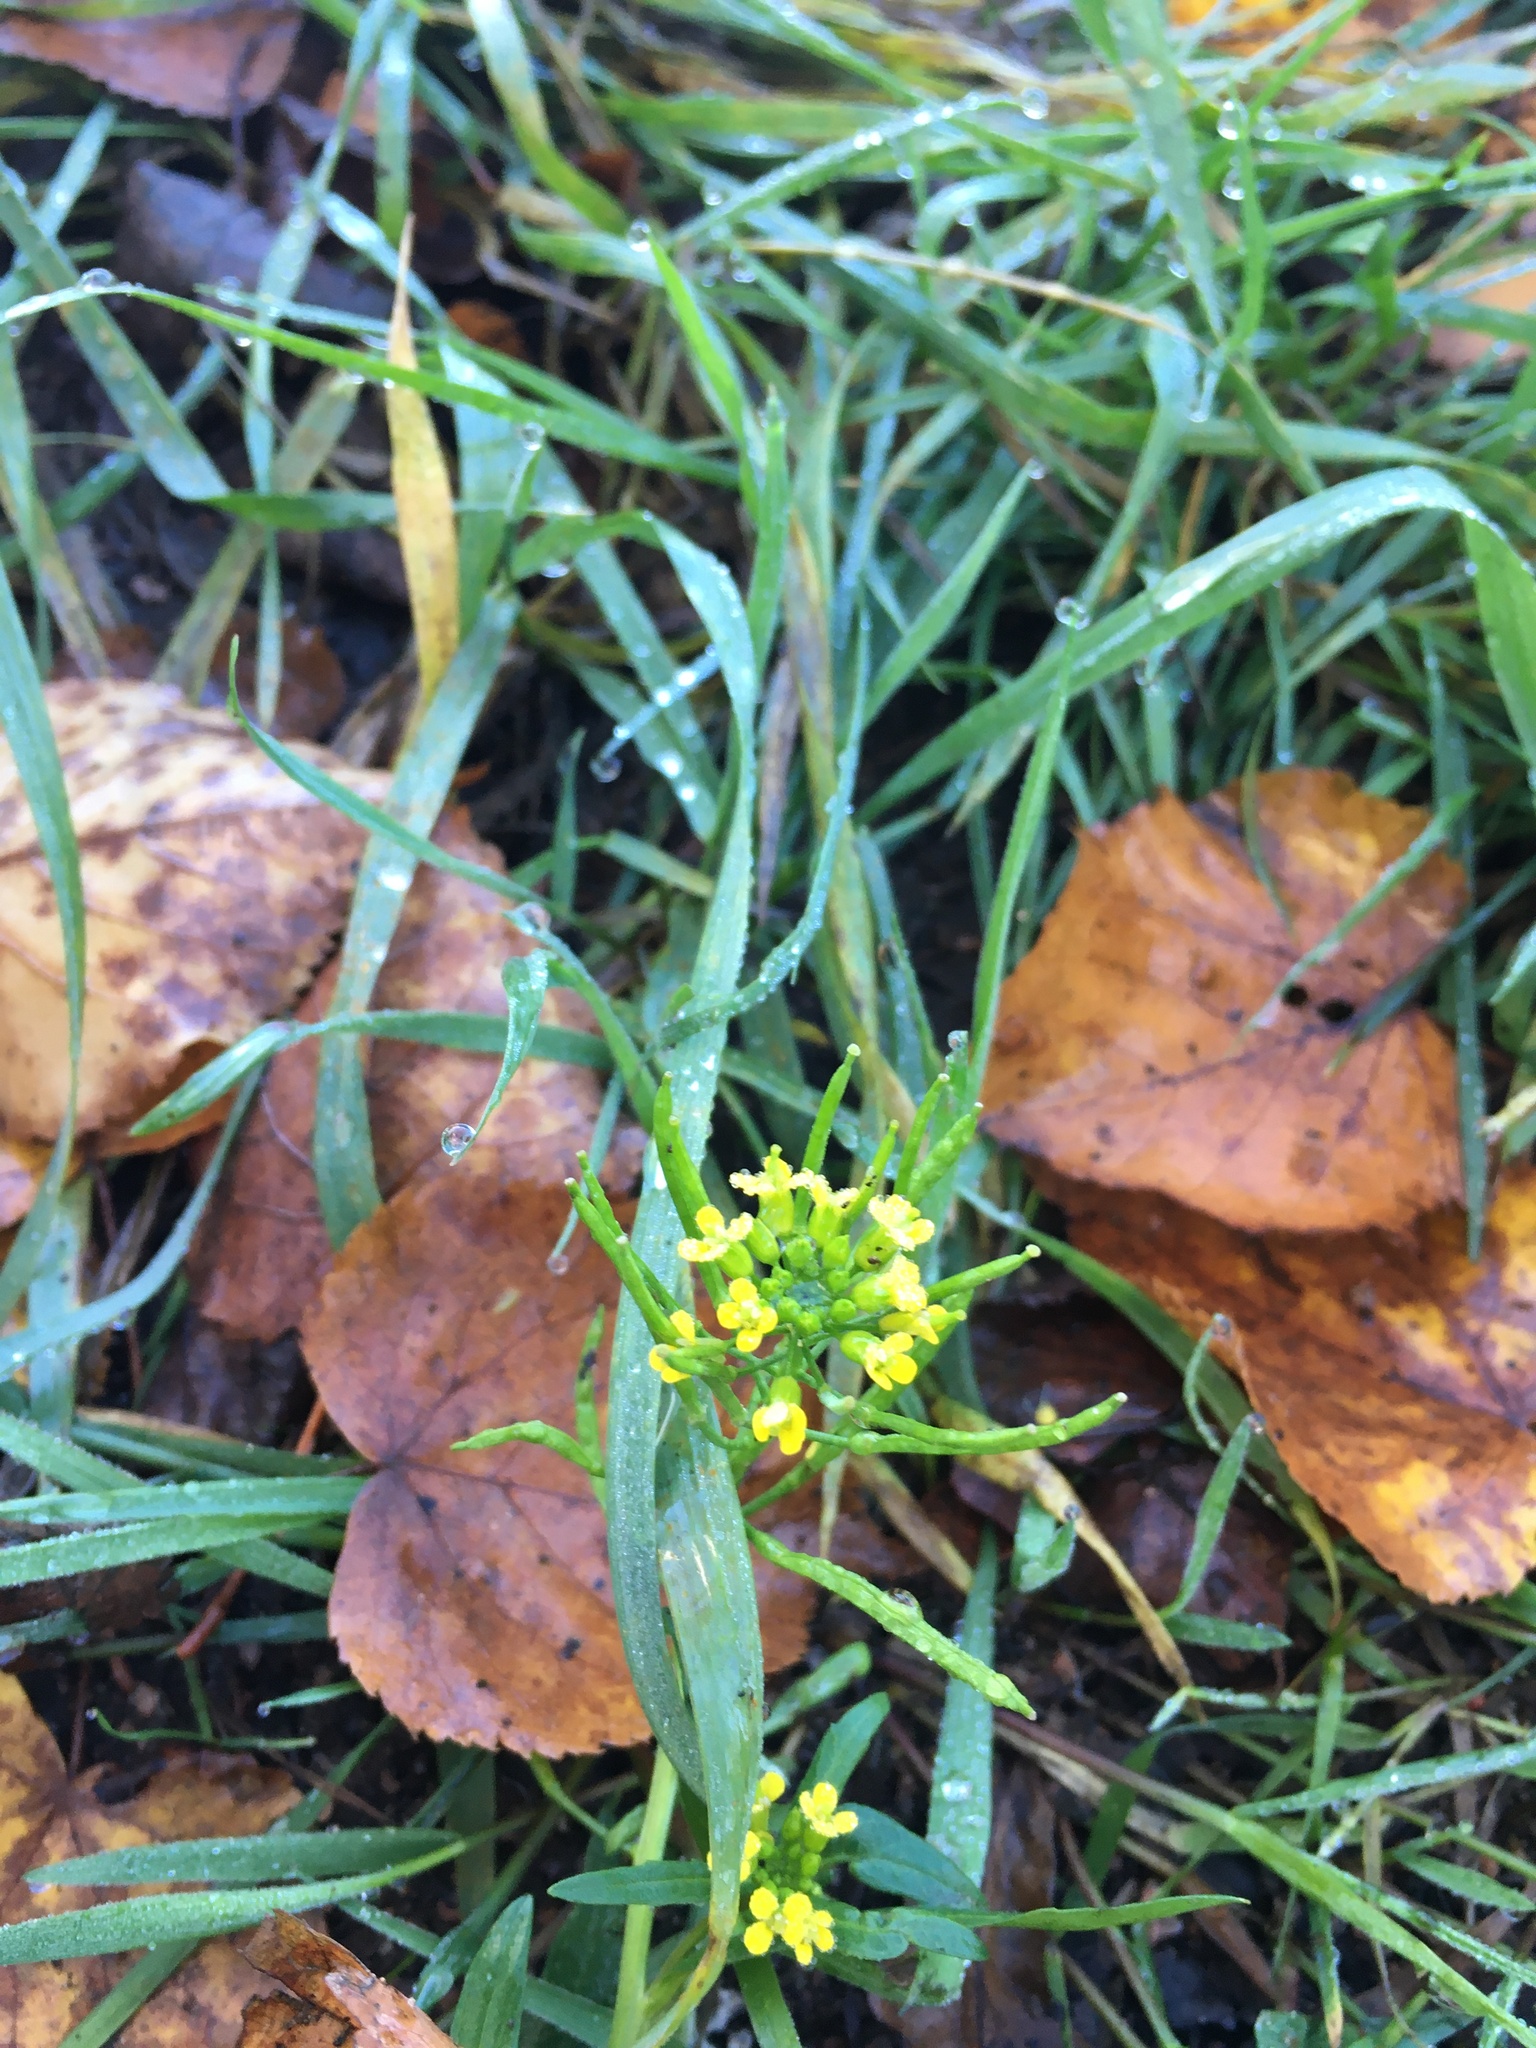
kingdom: Plantae
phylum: Tracheophyta
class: Magnoliopsida
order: Brassicales
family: Brassicaceae
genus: Erysimum
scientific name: Erysimum cheiranthoides
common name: Treacle mustard
